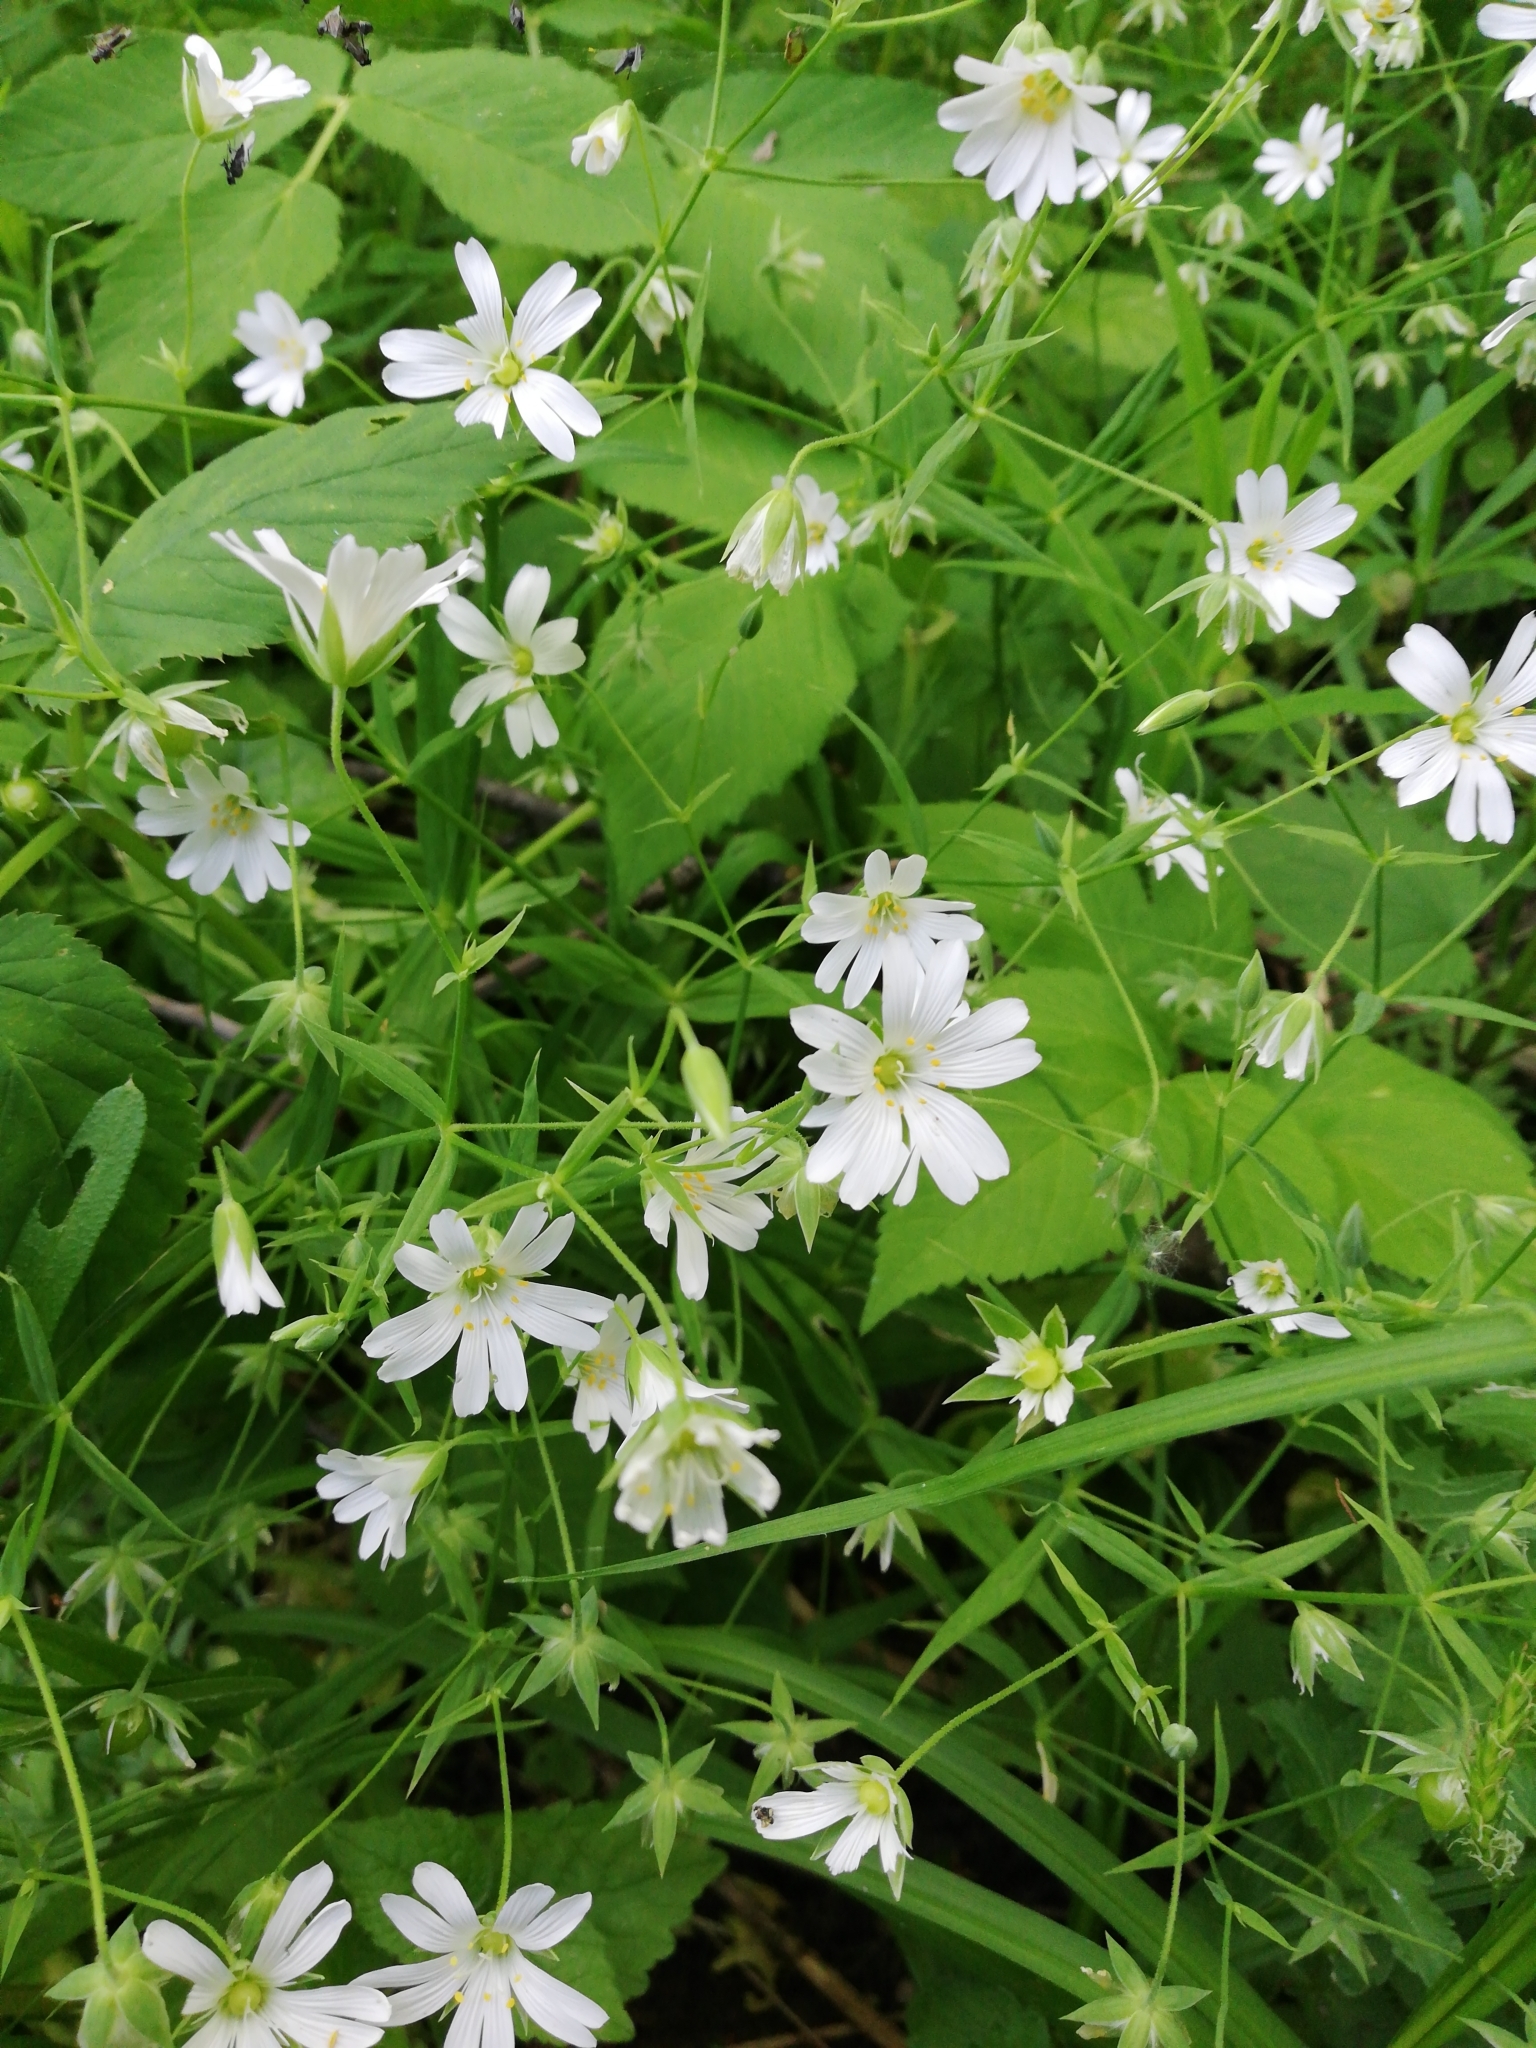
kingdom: Plantae
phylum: Tracheophyta
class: Magnoliopsida
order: Caryophyllales
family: Caryophyllaceae
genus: Rabelera
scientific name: Rabelera holostea
